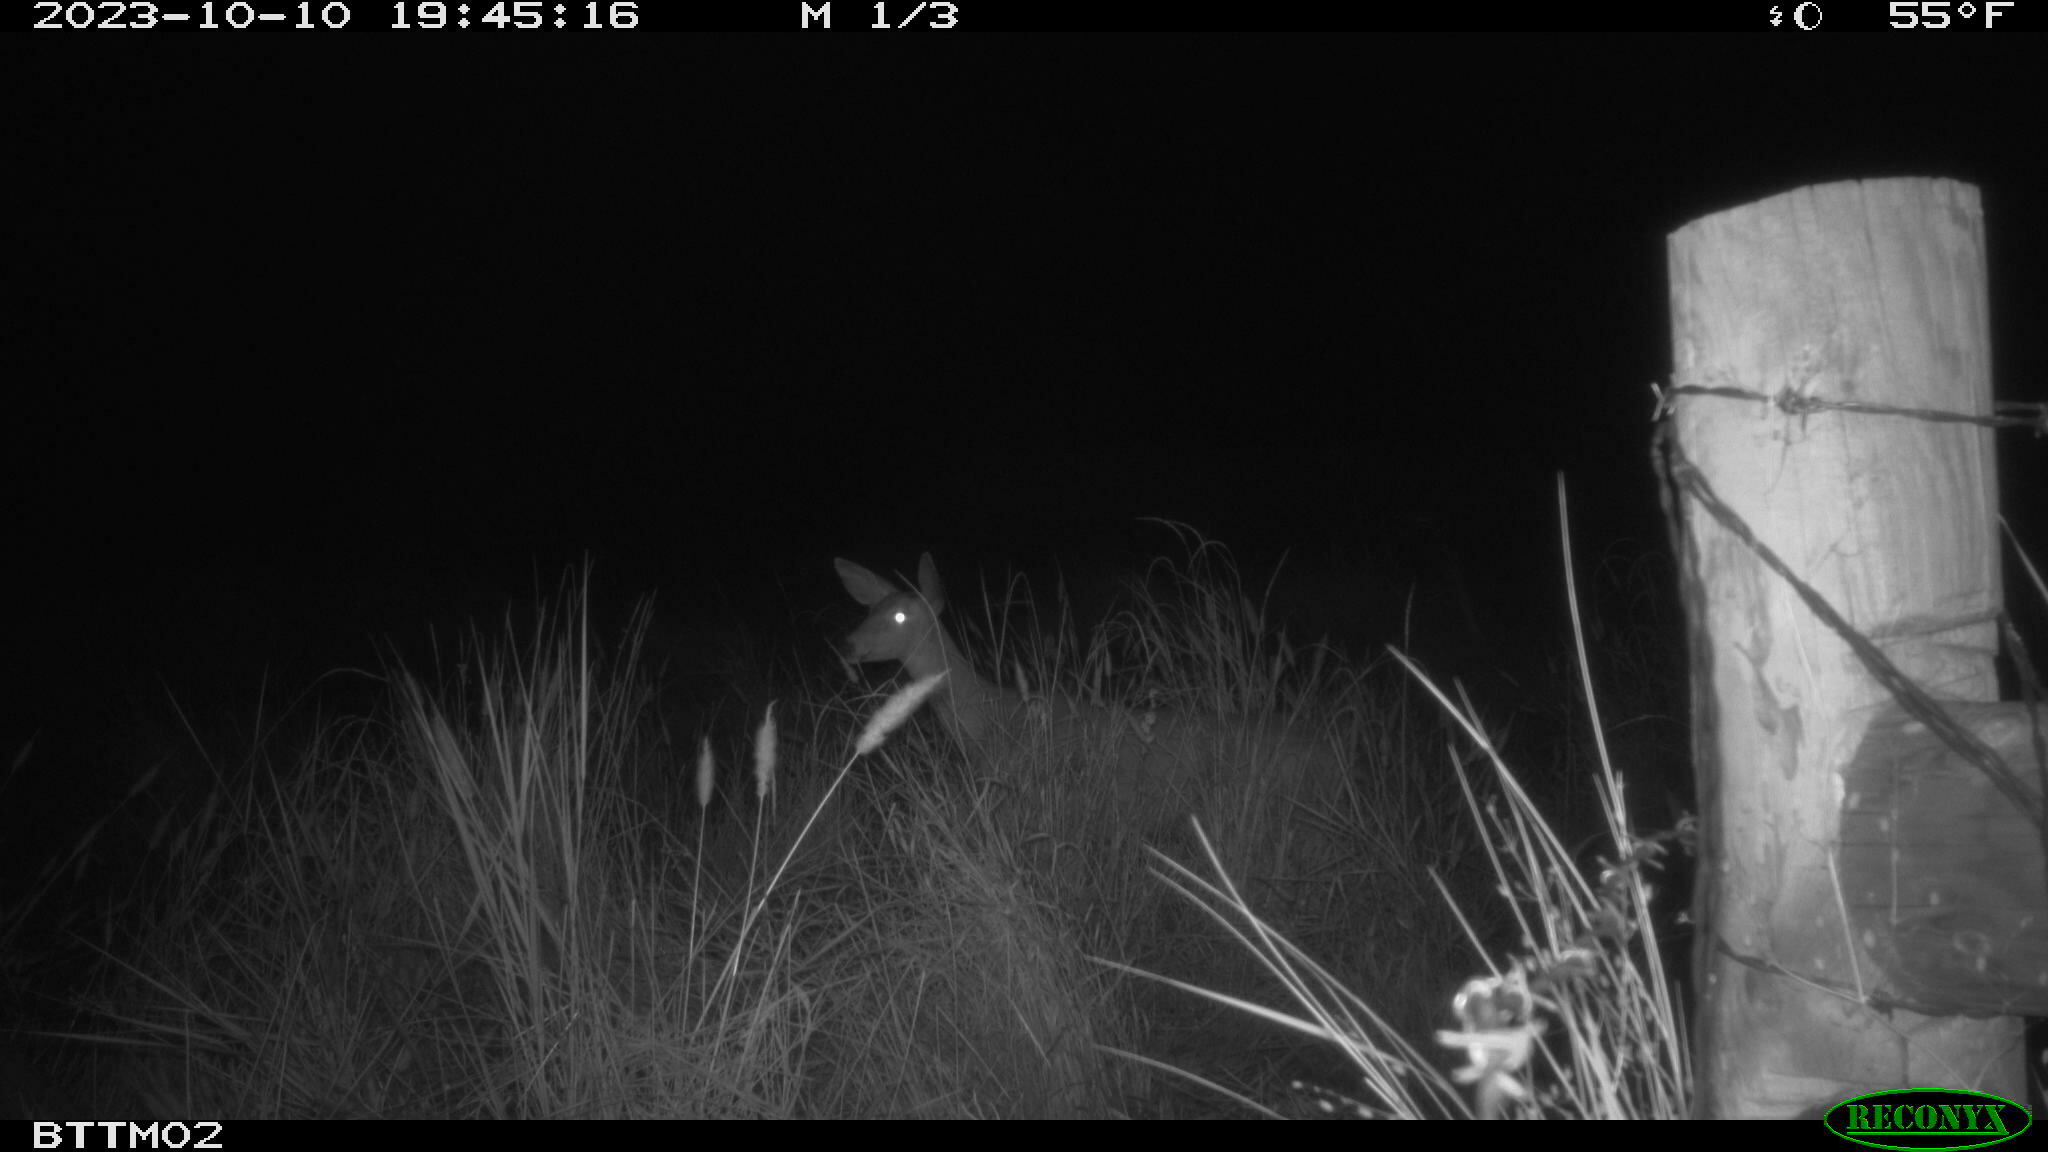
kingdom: Animalia
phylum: Chordata
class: Mammalia
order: Artiodactyla
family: Cervidae
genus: Odocoileus
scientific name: Odocoileus hemionus
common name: Mule deer
